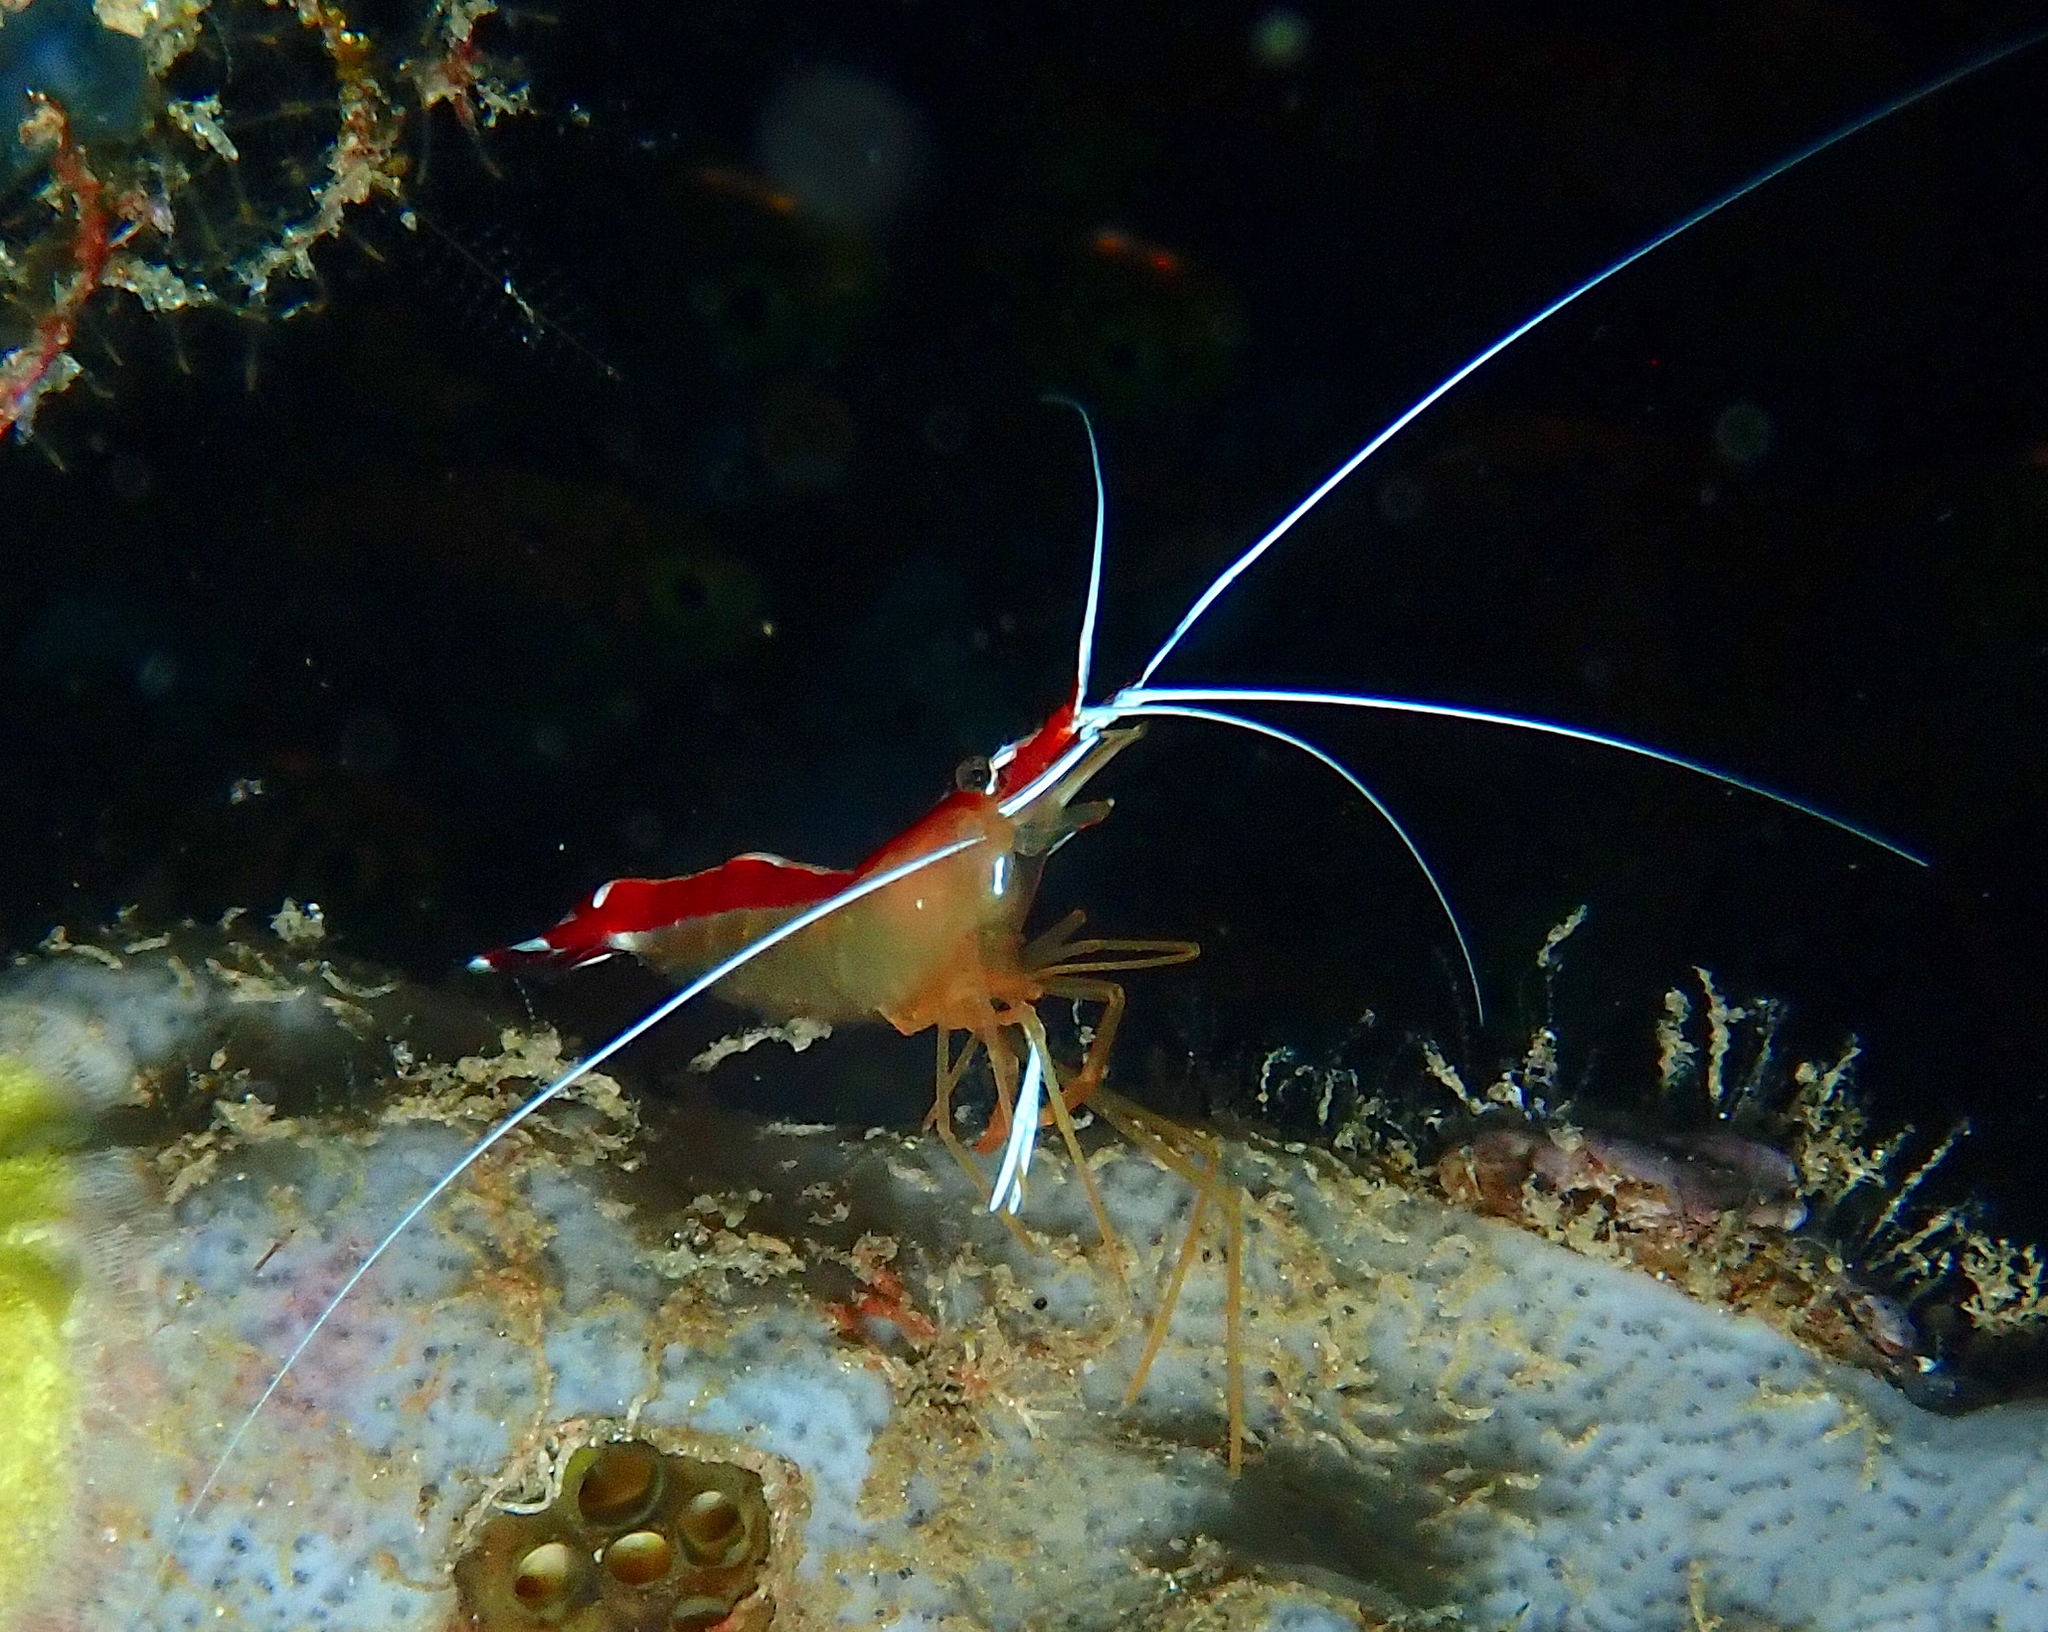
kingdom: Animalia
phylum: Arthropoda
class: Malacostraca
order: Decapoda
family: Lysmatidae
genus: Lysmata
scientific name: Lysmata amboinensis
